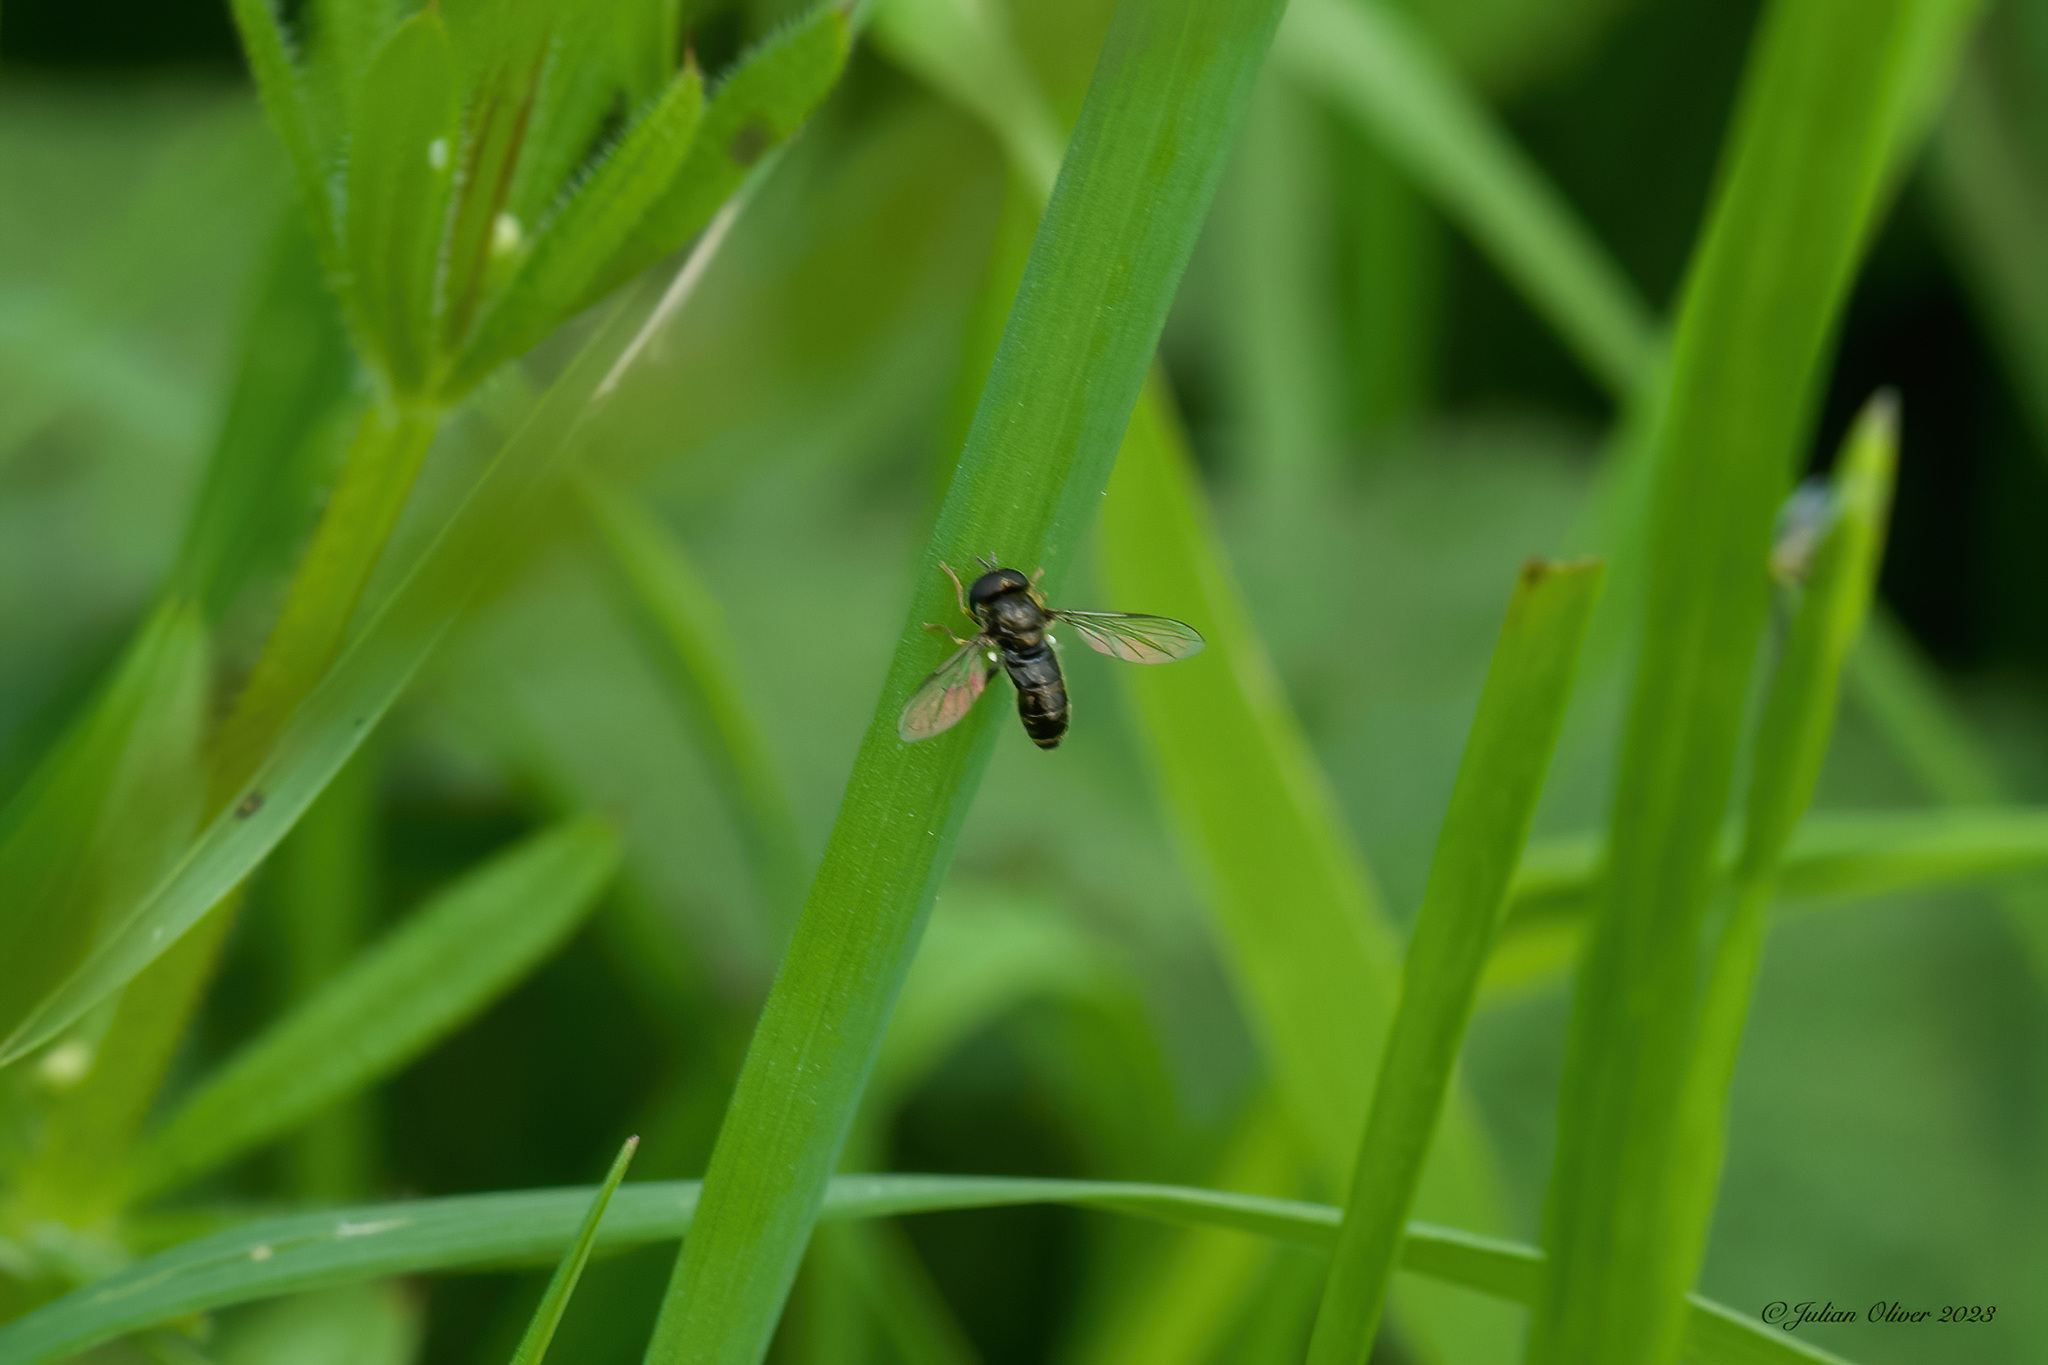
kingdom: Animalia
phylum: Arthropoda
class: Insecta
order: Diptera
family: Syrphidae
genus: Paragus
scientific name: Paragus
